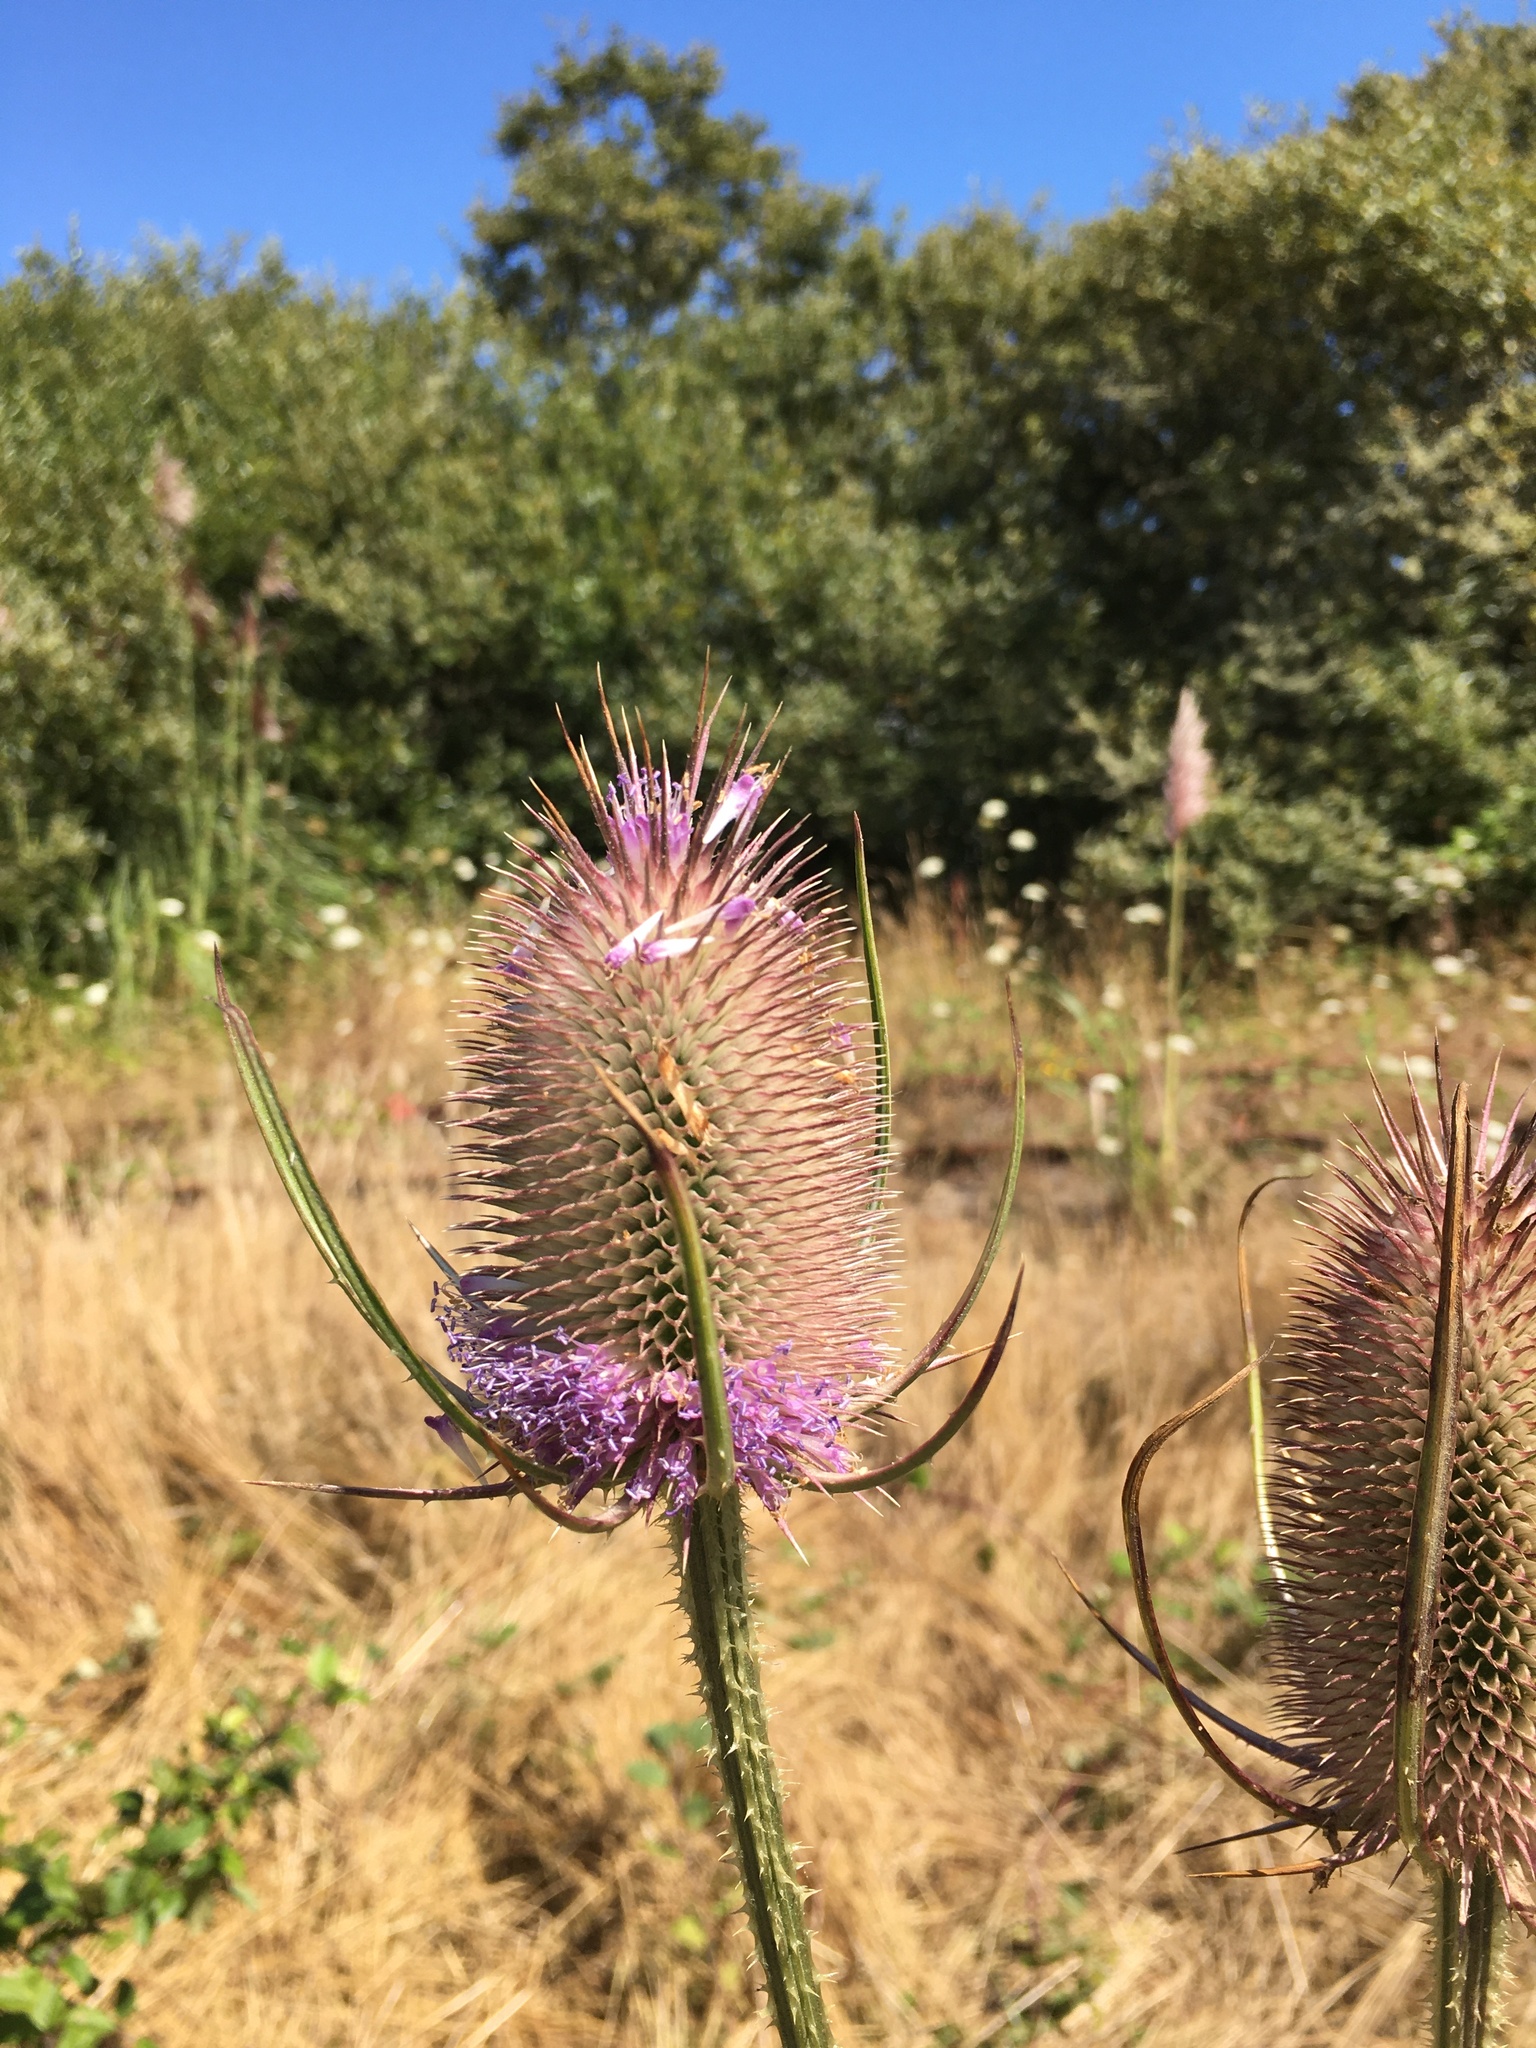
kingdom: Plantae
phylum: Tracheophyta
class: Magnoliopsida
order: Dipsacales
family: Caprifoliaceae
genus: Dipsacus
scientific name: Dipsacus fullonum
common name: Teasel
